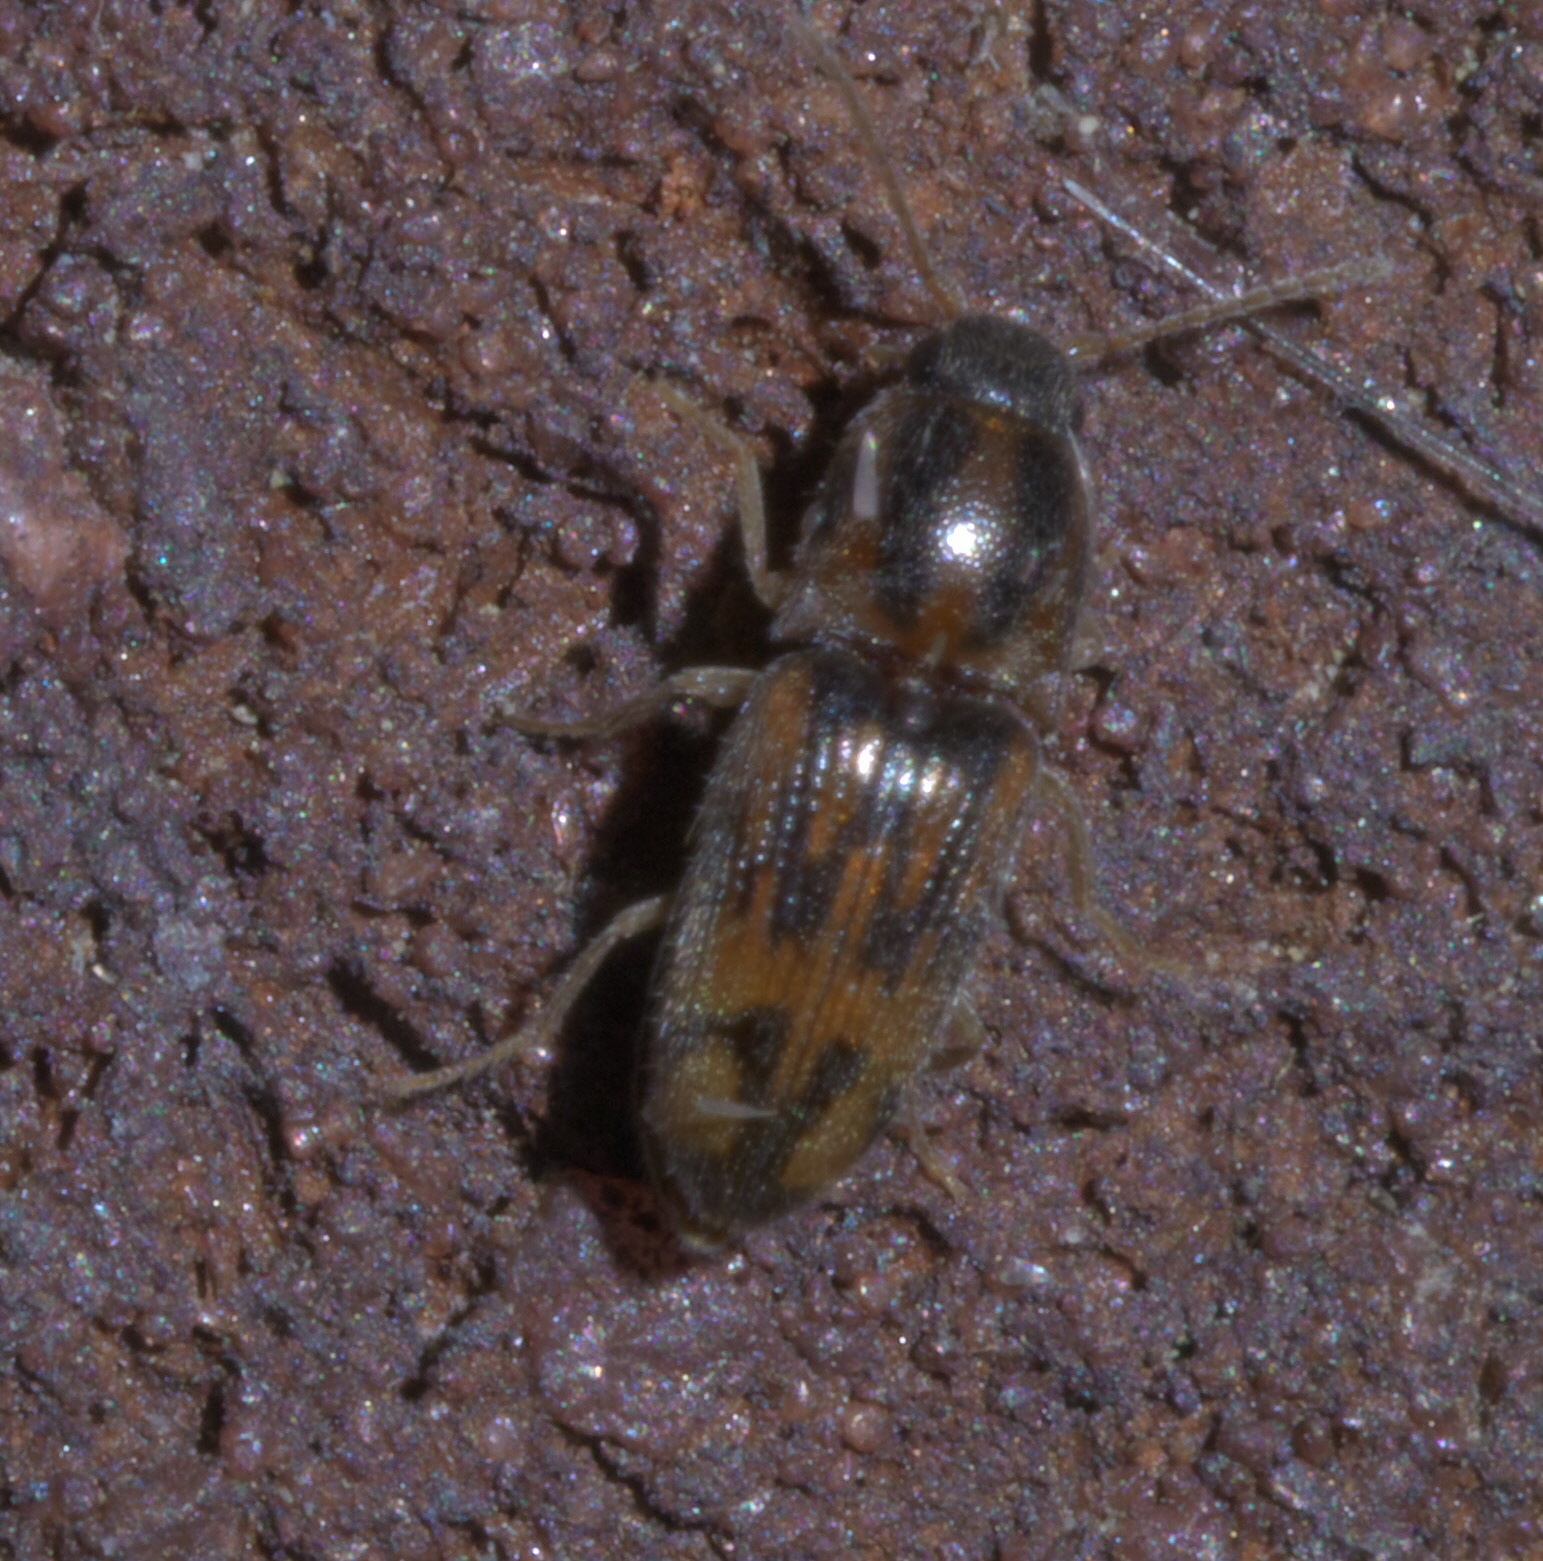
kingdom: Animalia
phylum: Arthropoda
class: Insecta
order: Coleoptera
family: Elateridae
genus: Monocrepidius
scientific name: Monocrepidius bellus
